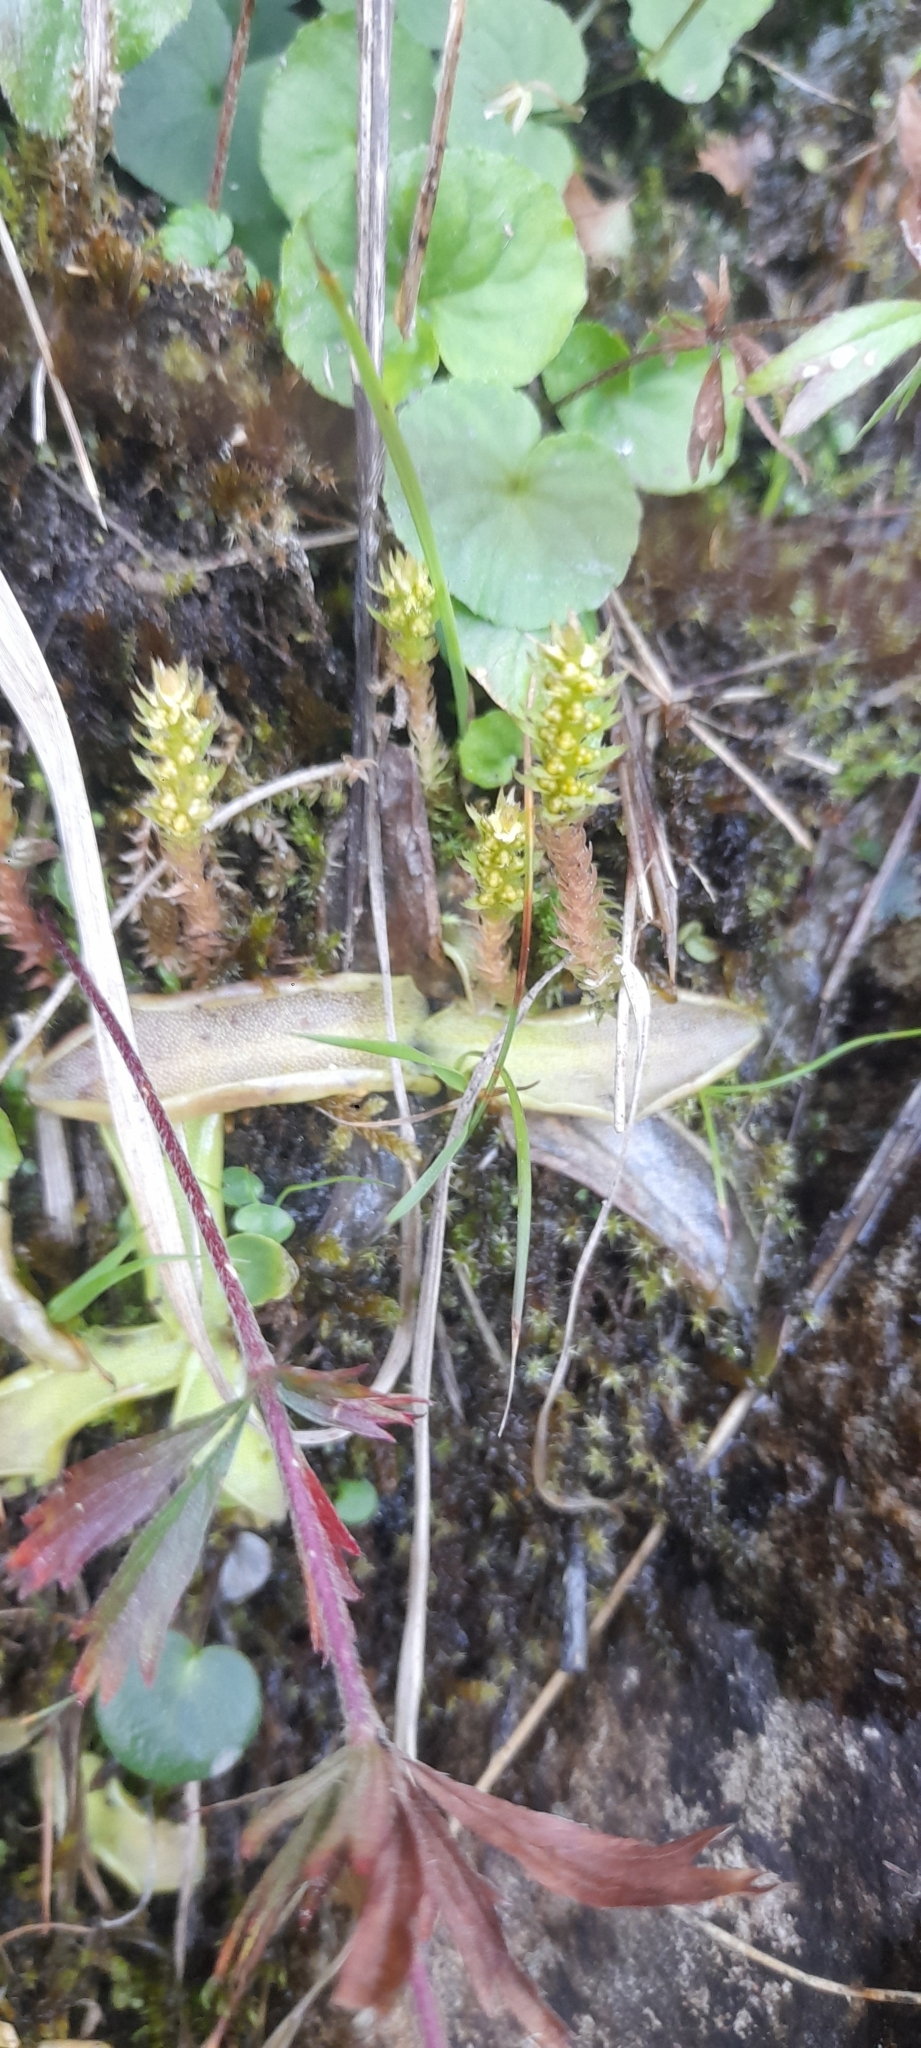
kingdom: Plantae
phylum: Tracheophyta
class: Lycopodiopsida
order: Selaginellales
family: Selaginellaceae
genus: Selaginella
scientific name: Selaginella selaginoides
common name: Prickly mountain-moss
